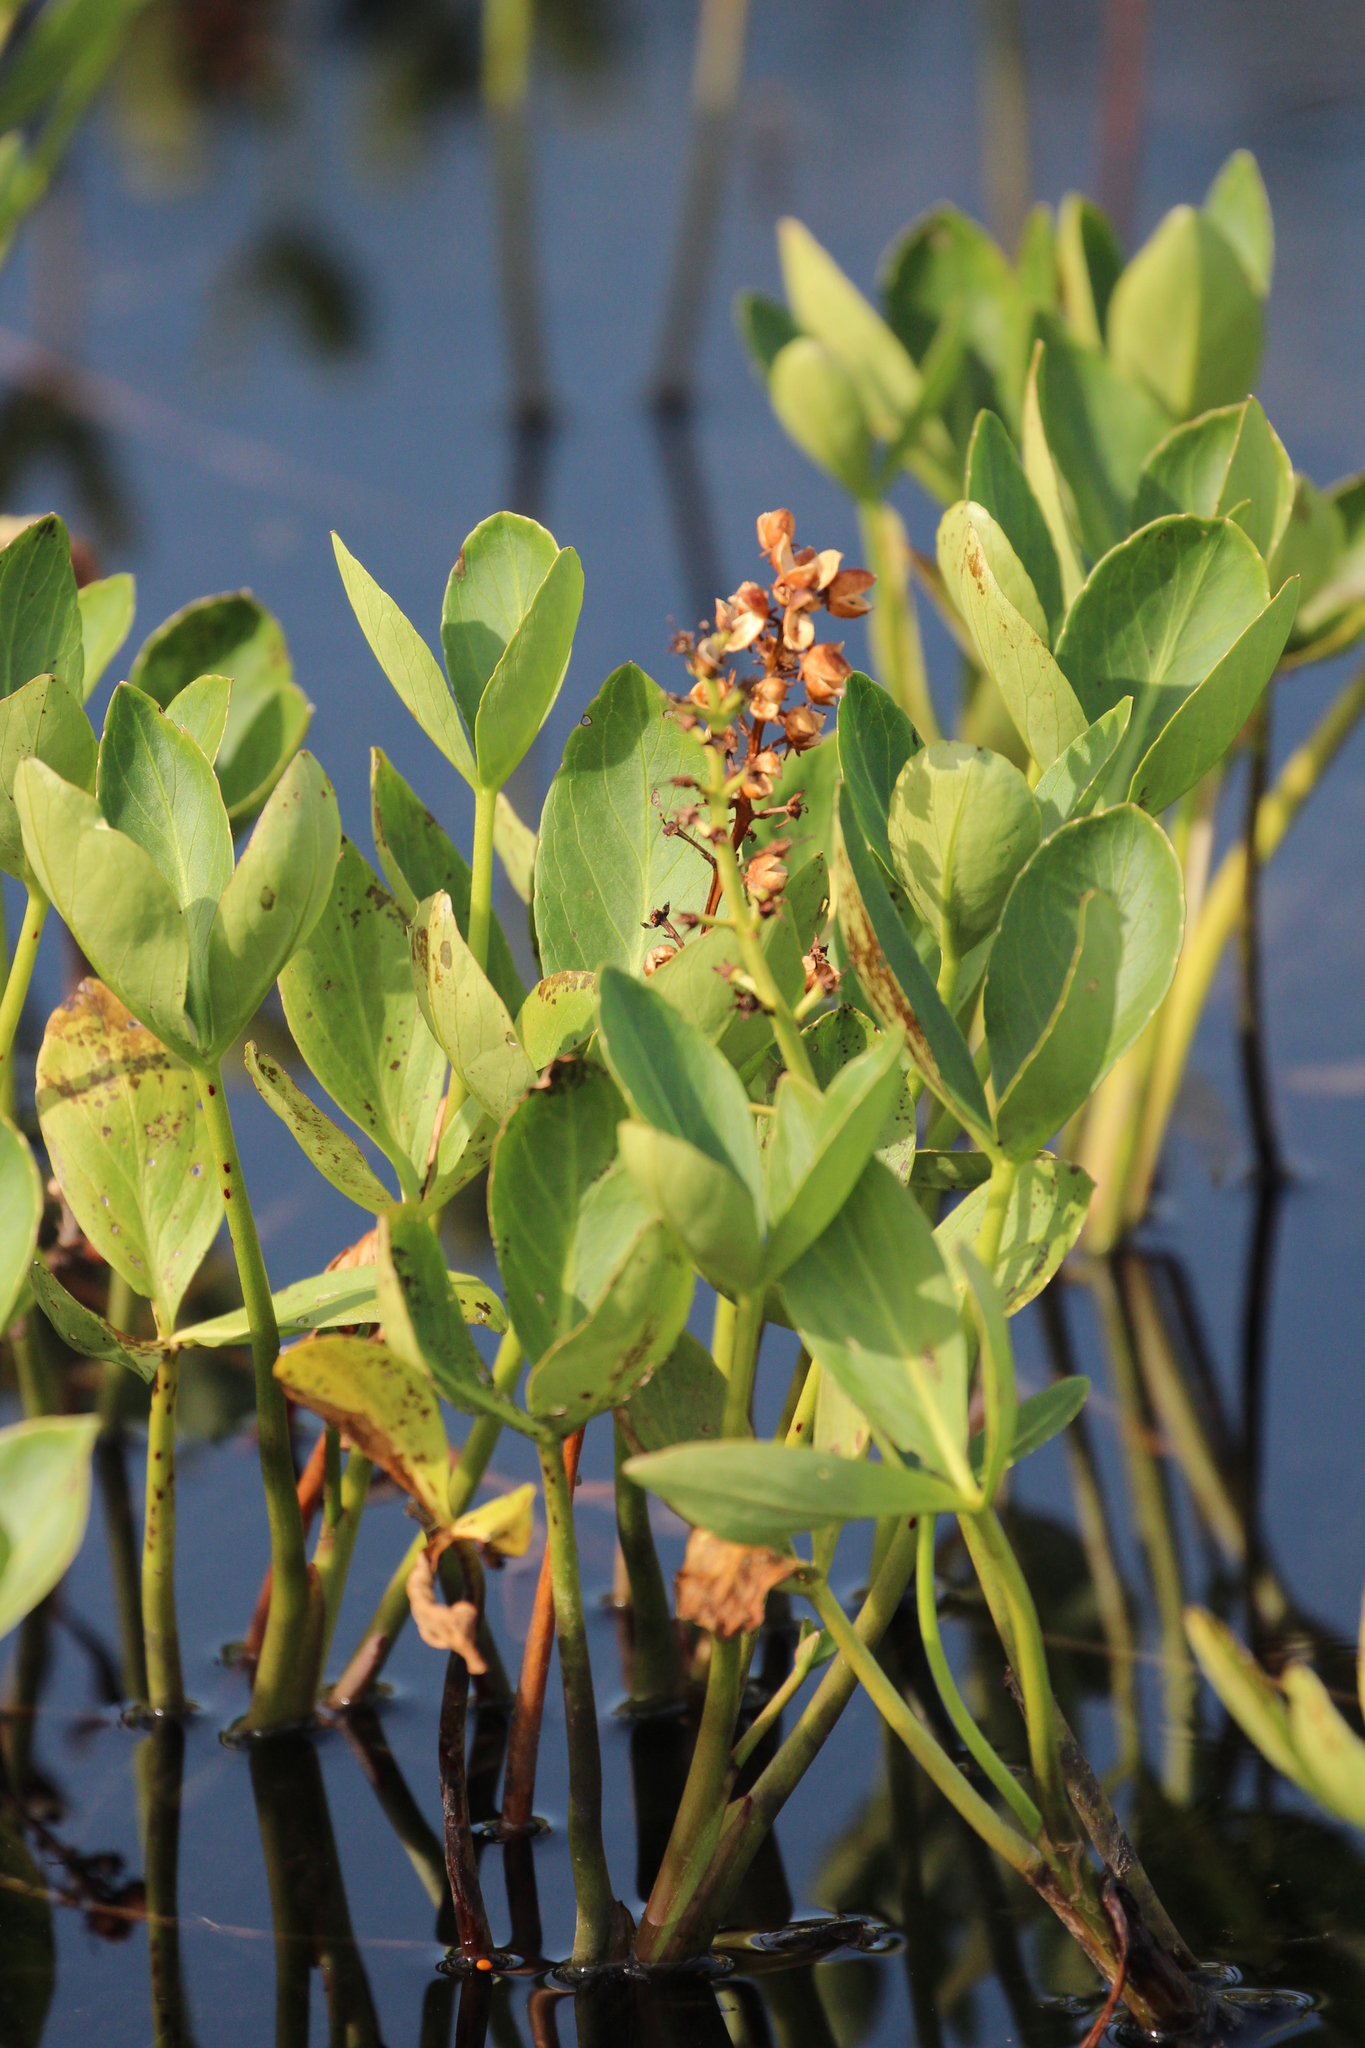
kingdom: Plantae
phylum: Tracheophyta
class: Magnoliopsida
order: Asterales
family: Menyanthaceae
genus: Menyanthes
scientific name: Menyanthes trifoliata
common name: Bogbean
